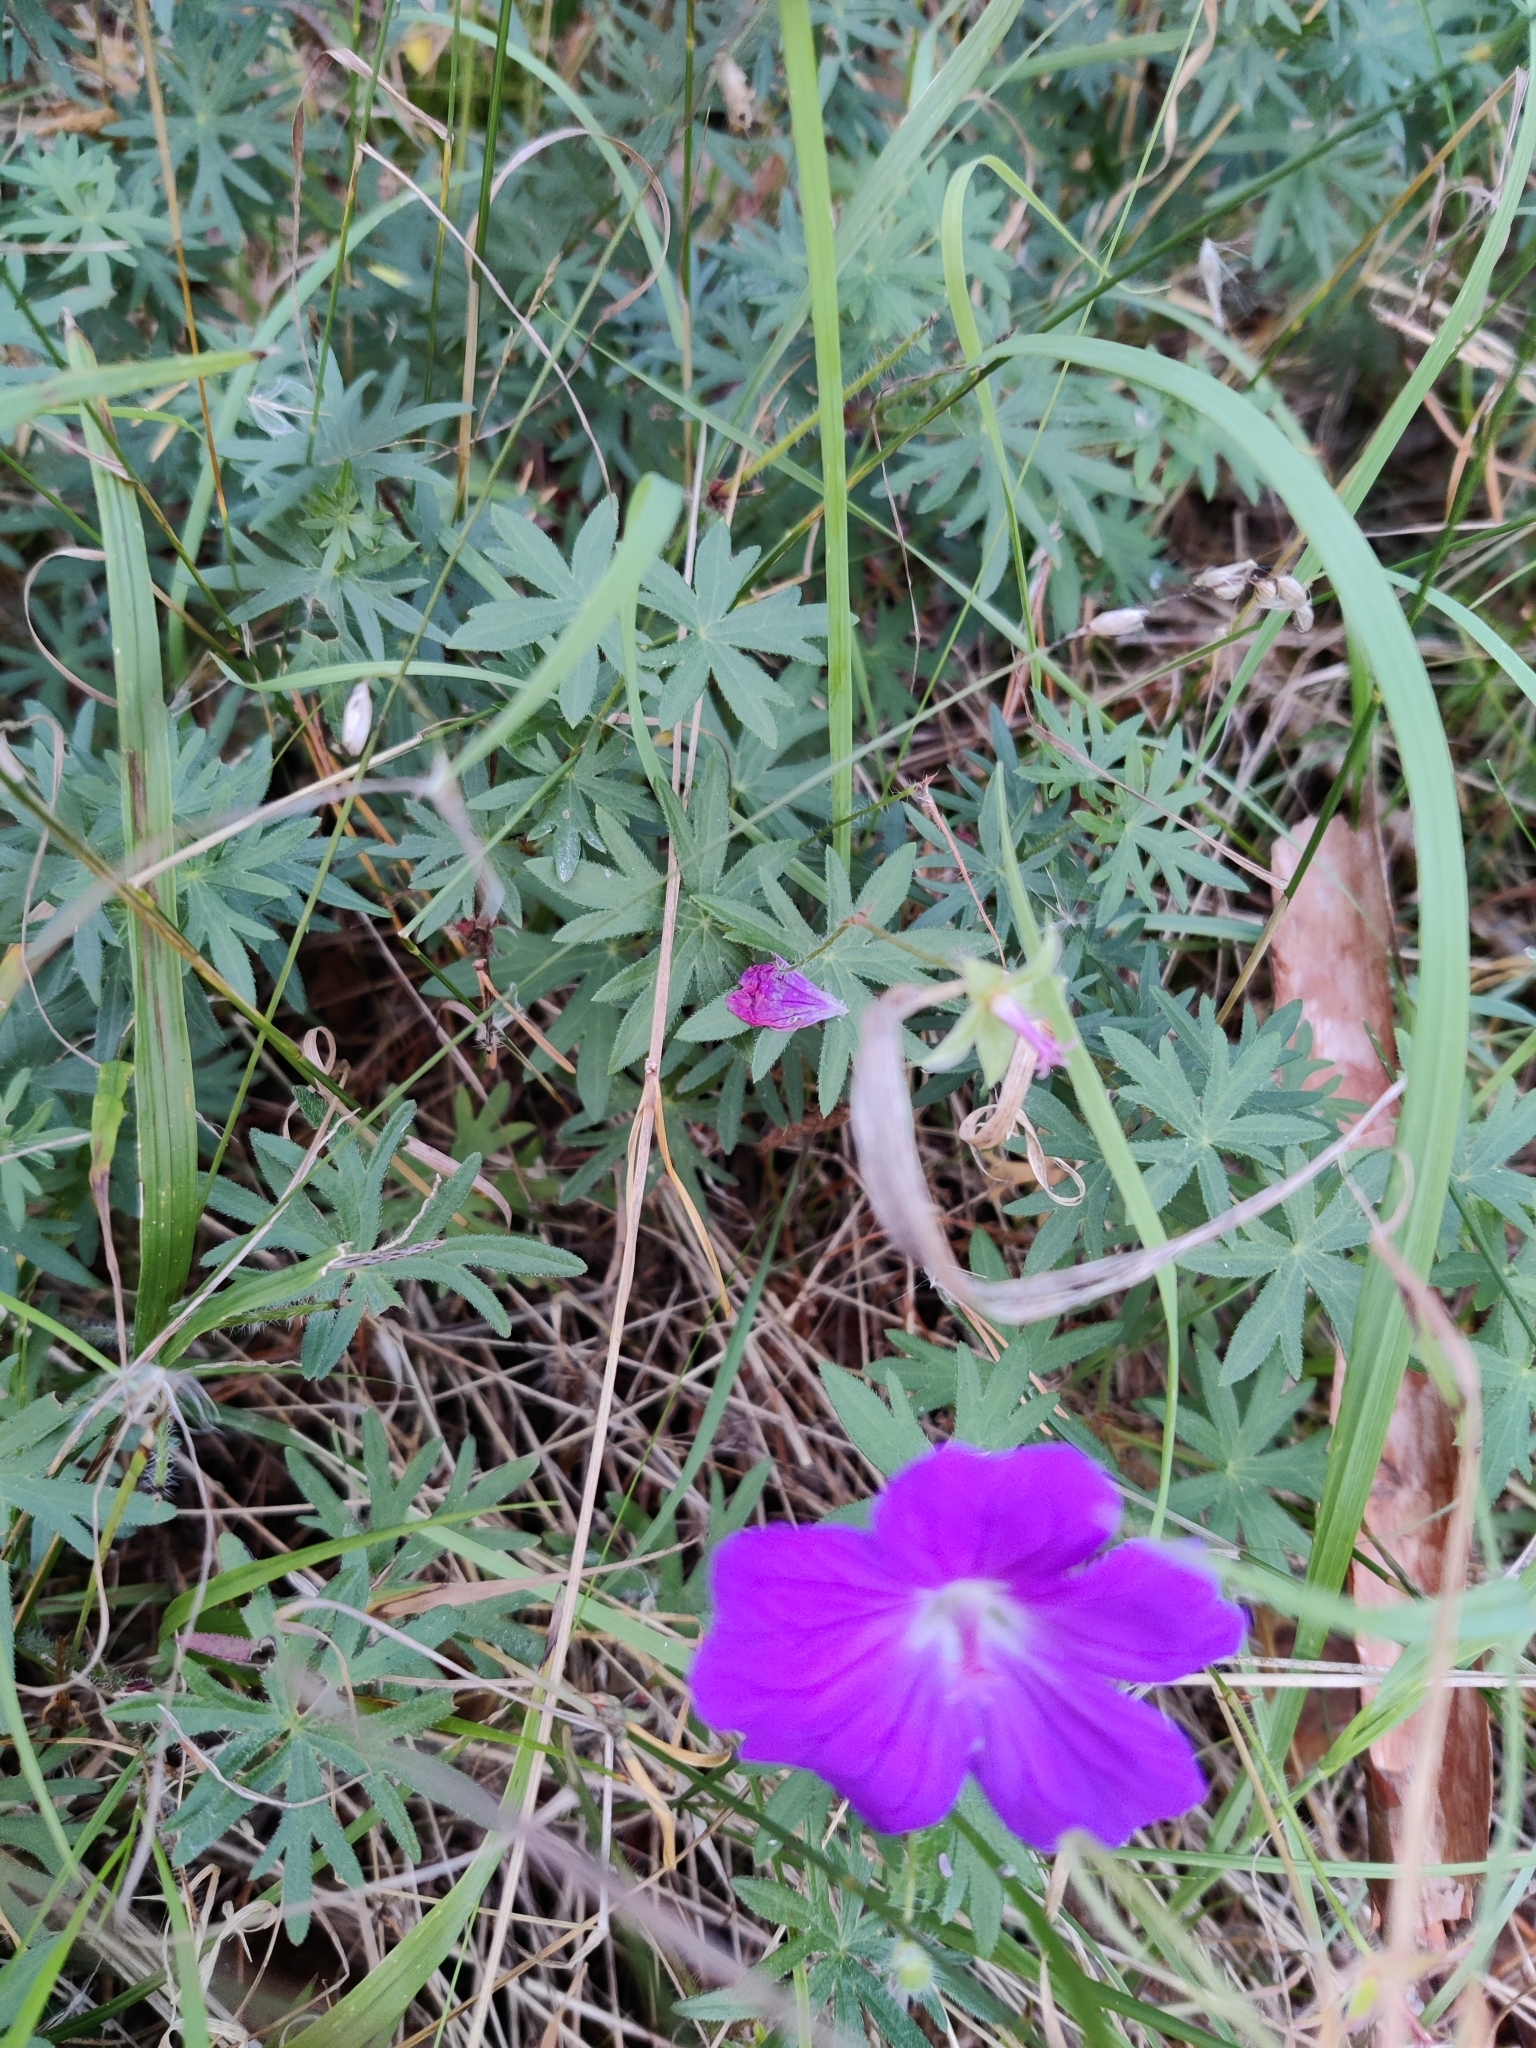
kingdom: Plantae
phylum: Tracheophyta
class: Magnoliopsida
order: Geraniales
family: Geraniaceae
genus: Geranium
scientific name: Geranium sanguineum
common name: Bloody crane's-bill
